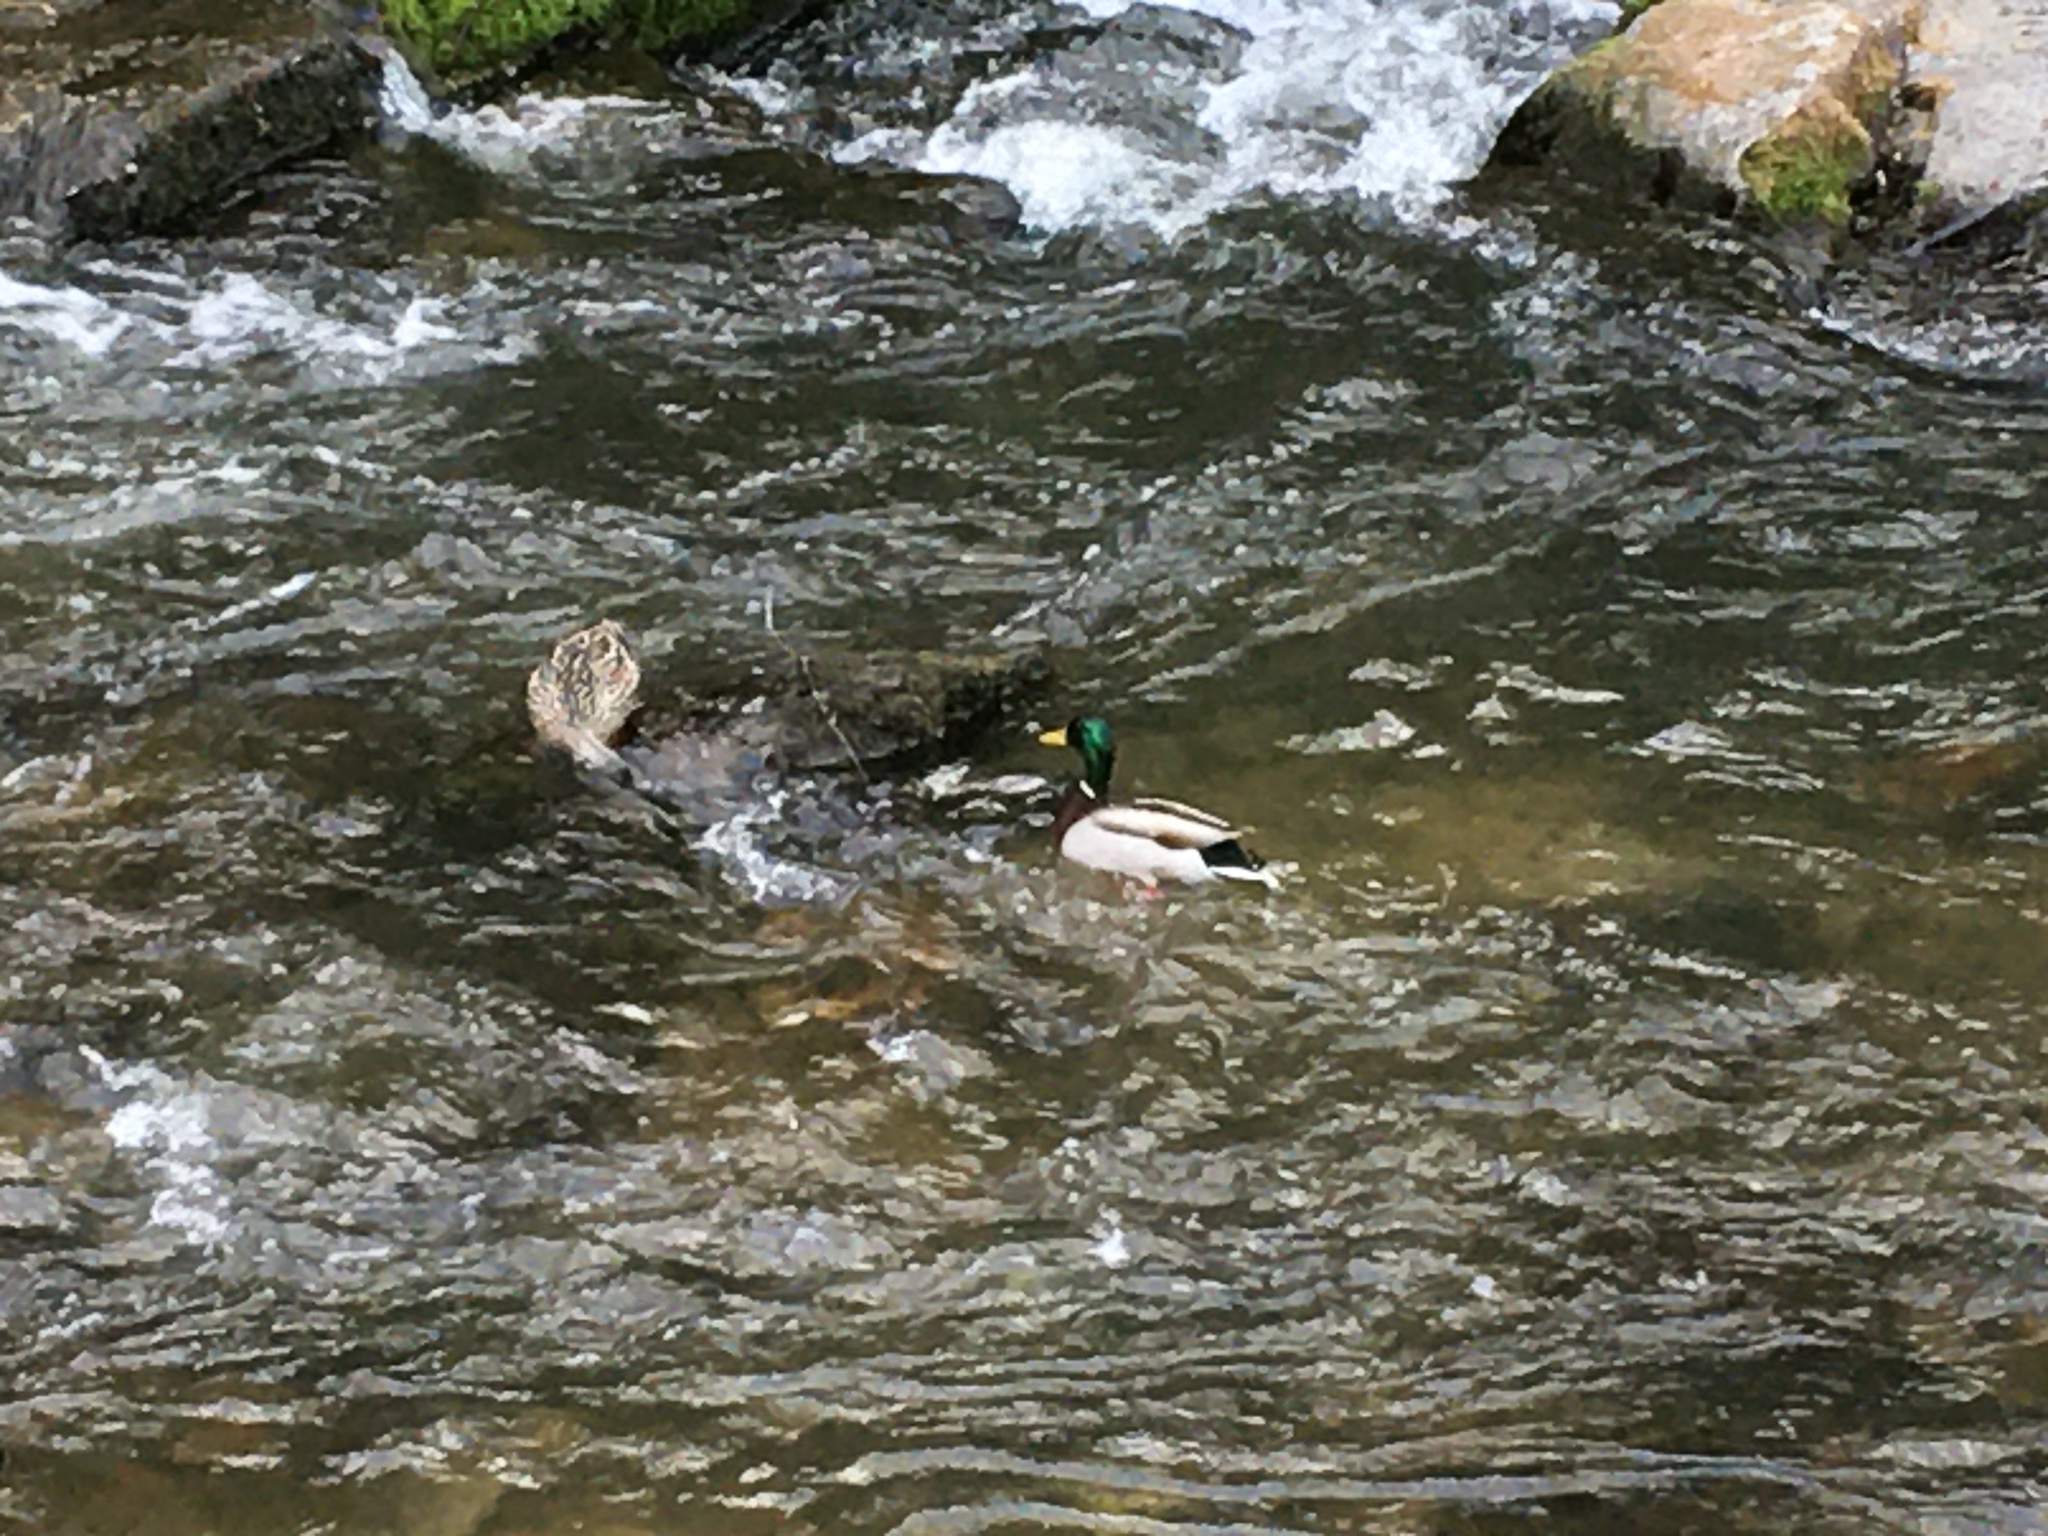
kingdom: Animalia
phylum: Chordata
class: Aves
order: Anseriformes
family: Anatidae
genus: Anas
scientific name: Anas platyrhynchos
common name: Mallard
